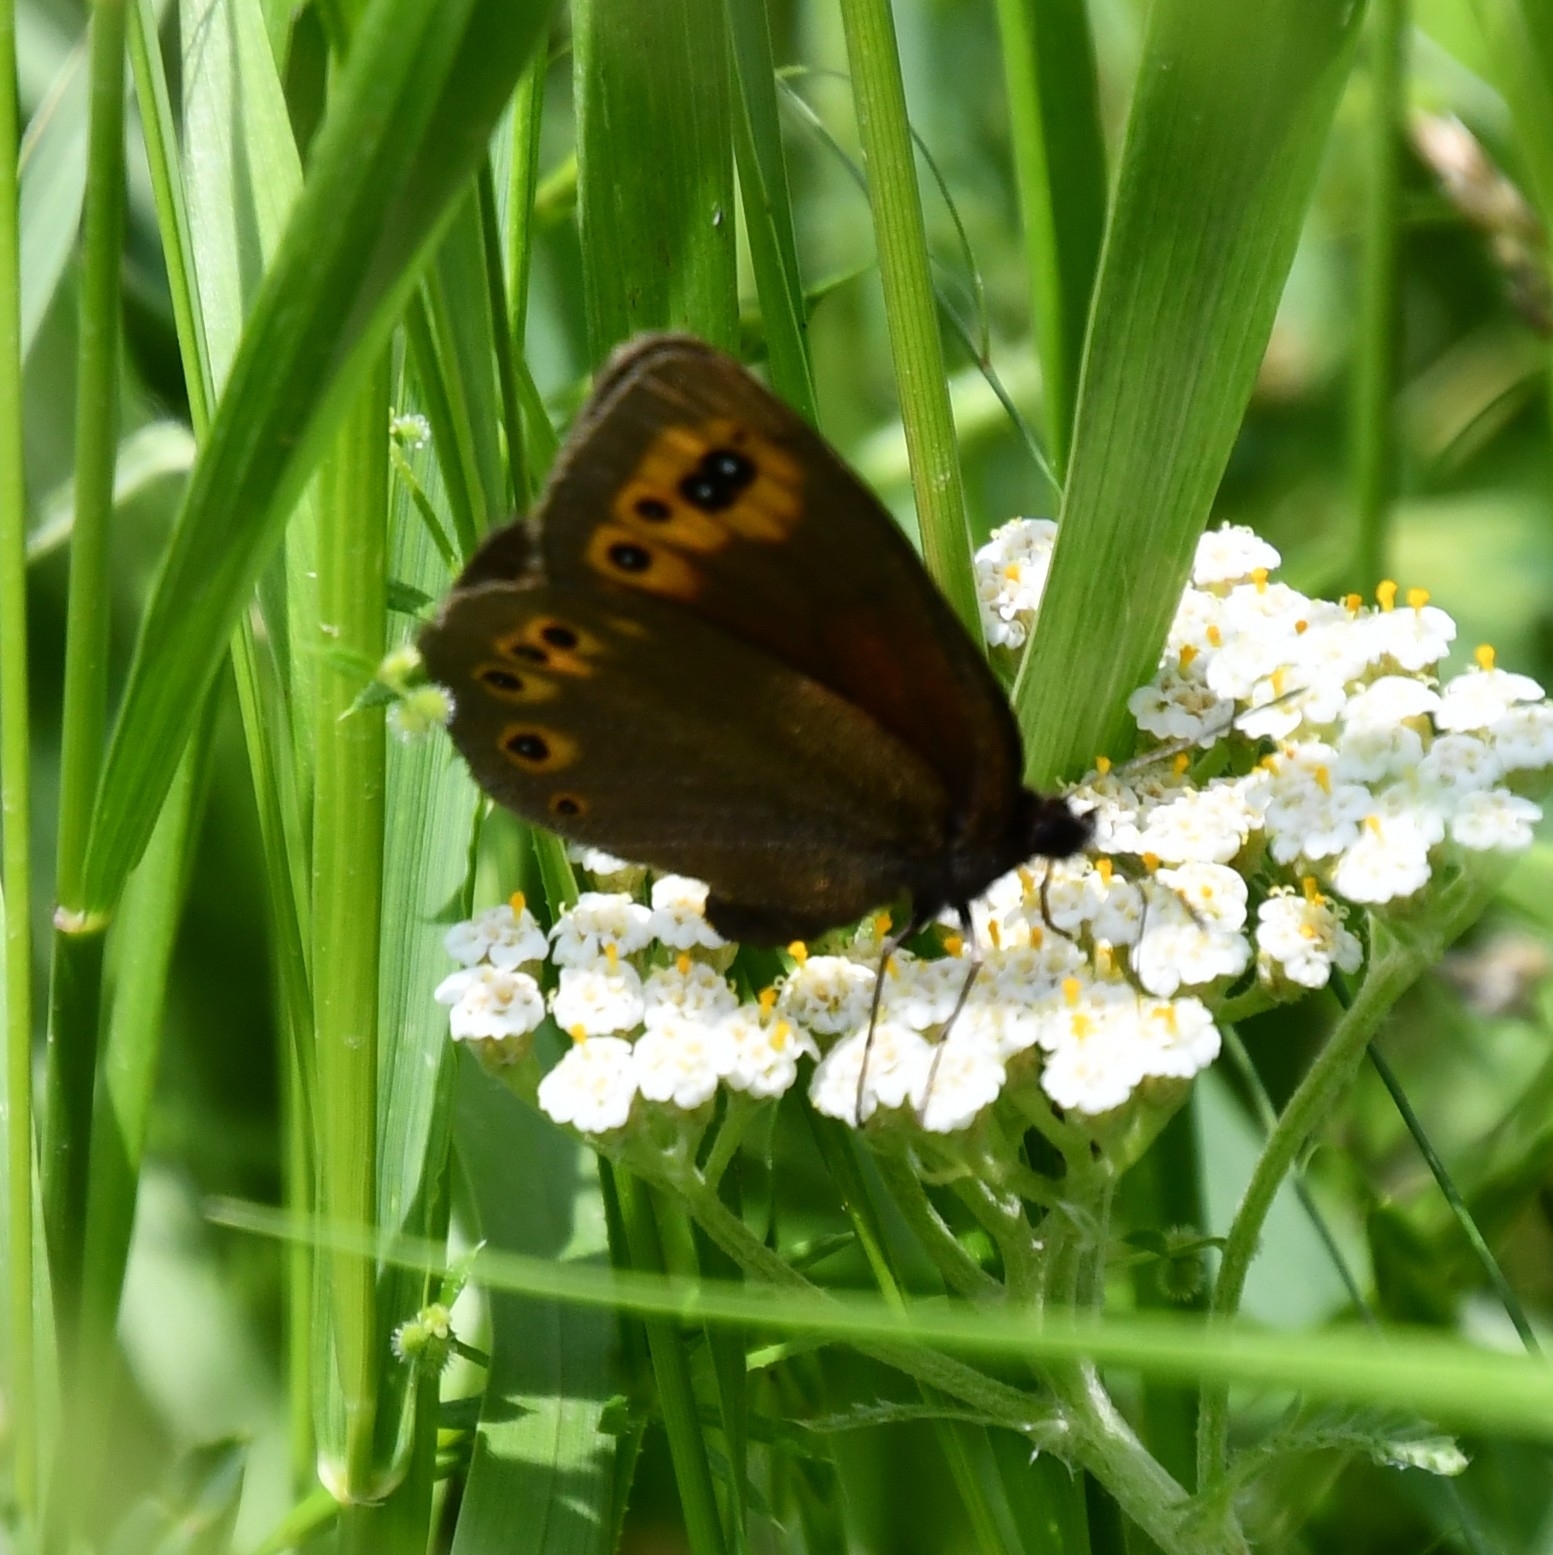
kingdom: Animalia
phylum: Arthropoda
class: Insecta
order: Lepidoptera
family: Nymphalidae
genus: Erebia
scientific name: Erebia medusa
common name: Woodland ringlet
